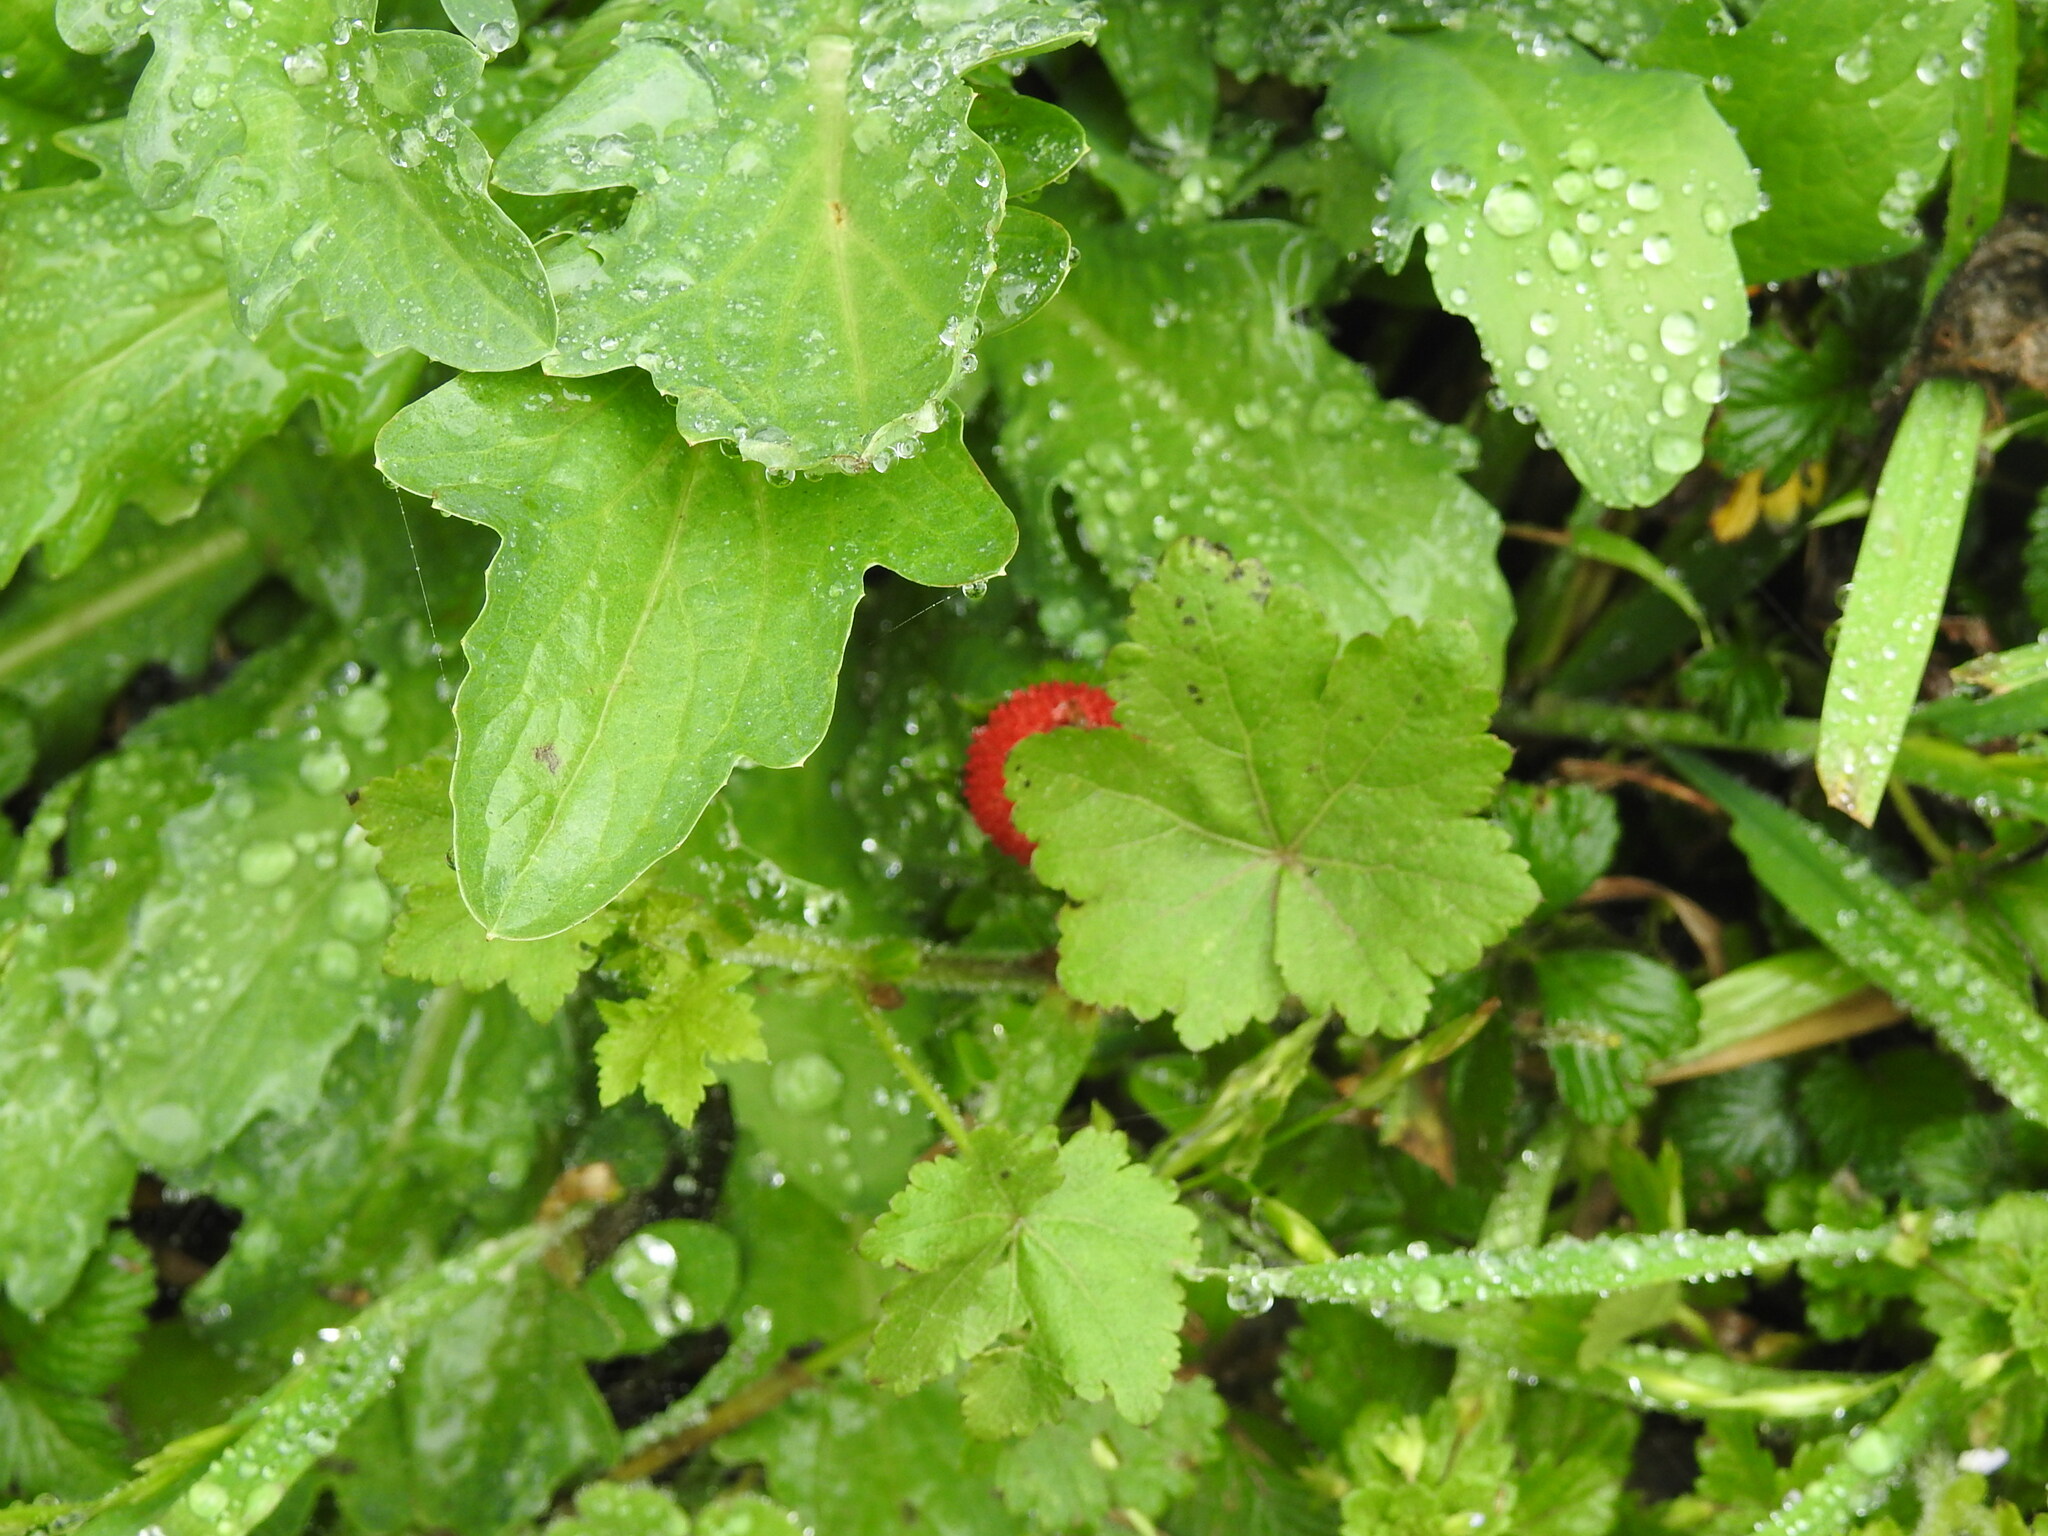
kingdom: Plantae
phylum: Tracheophyta
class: Magnoliopsida
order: Rosales
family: Rosaceae
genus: Potentilla
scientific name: Potentilla indica
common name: Yellow-flowered strawberry
